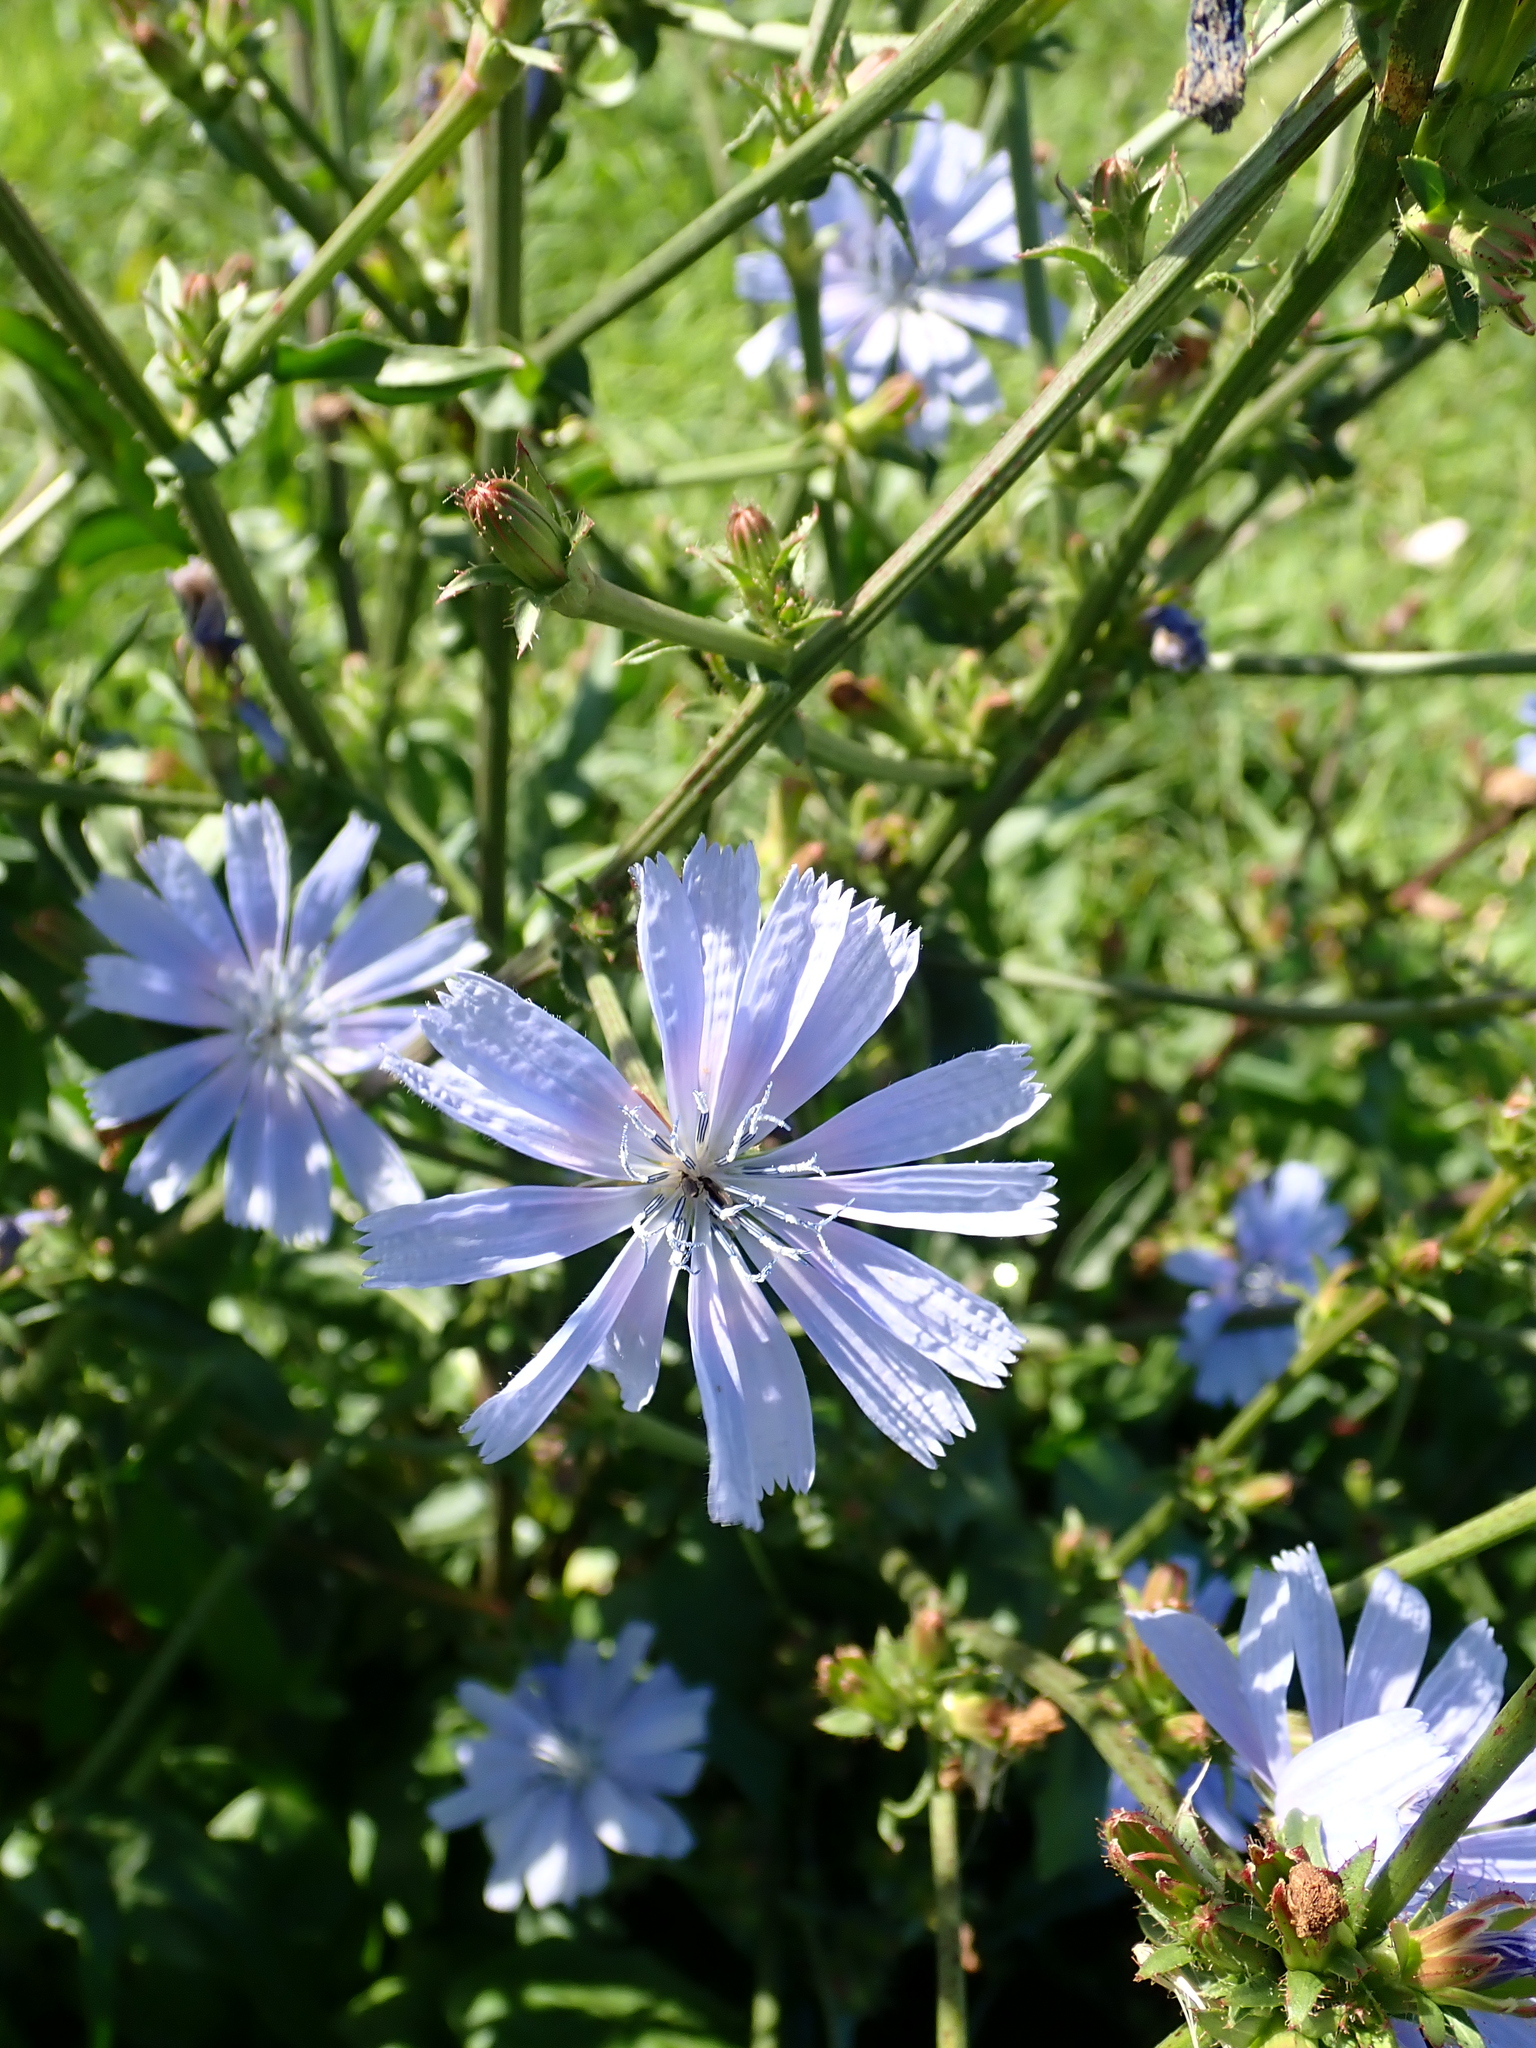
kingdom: Plantae
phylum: Tracheophyta
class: Magnoliopsida
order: Asterales
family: Asteraceae
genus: Cichorium
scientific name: Cichorium intybus
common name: Chicory
